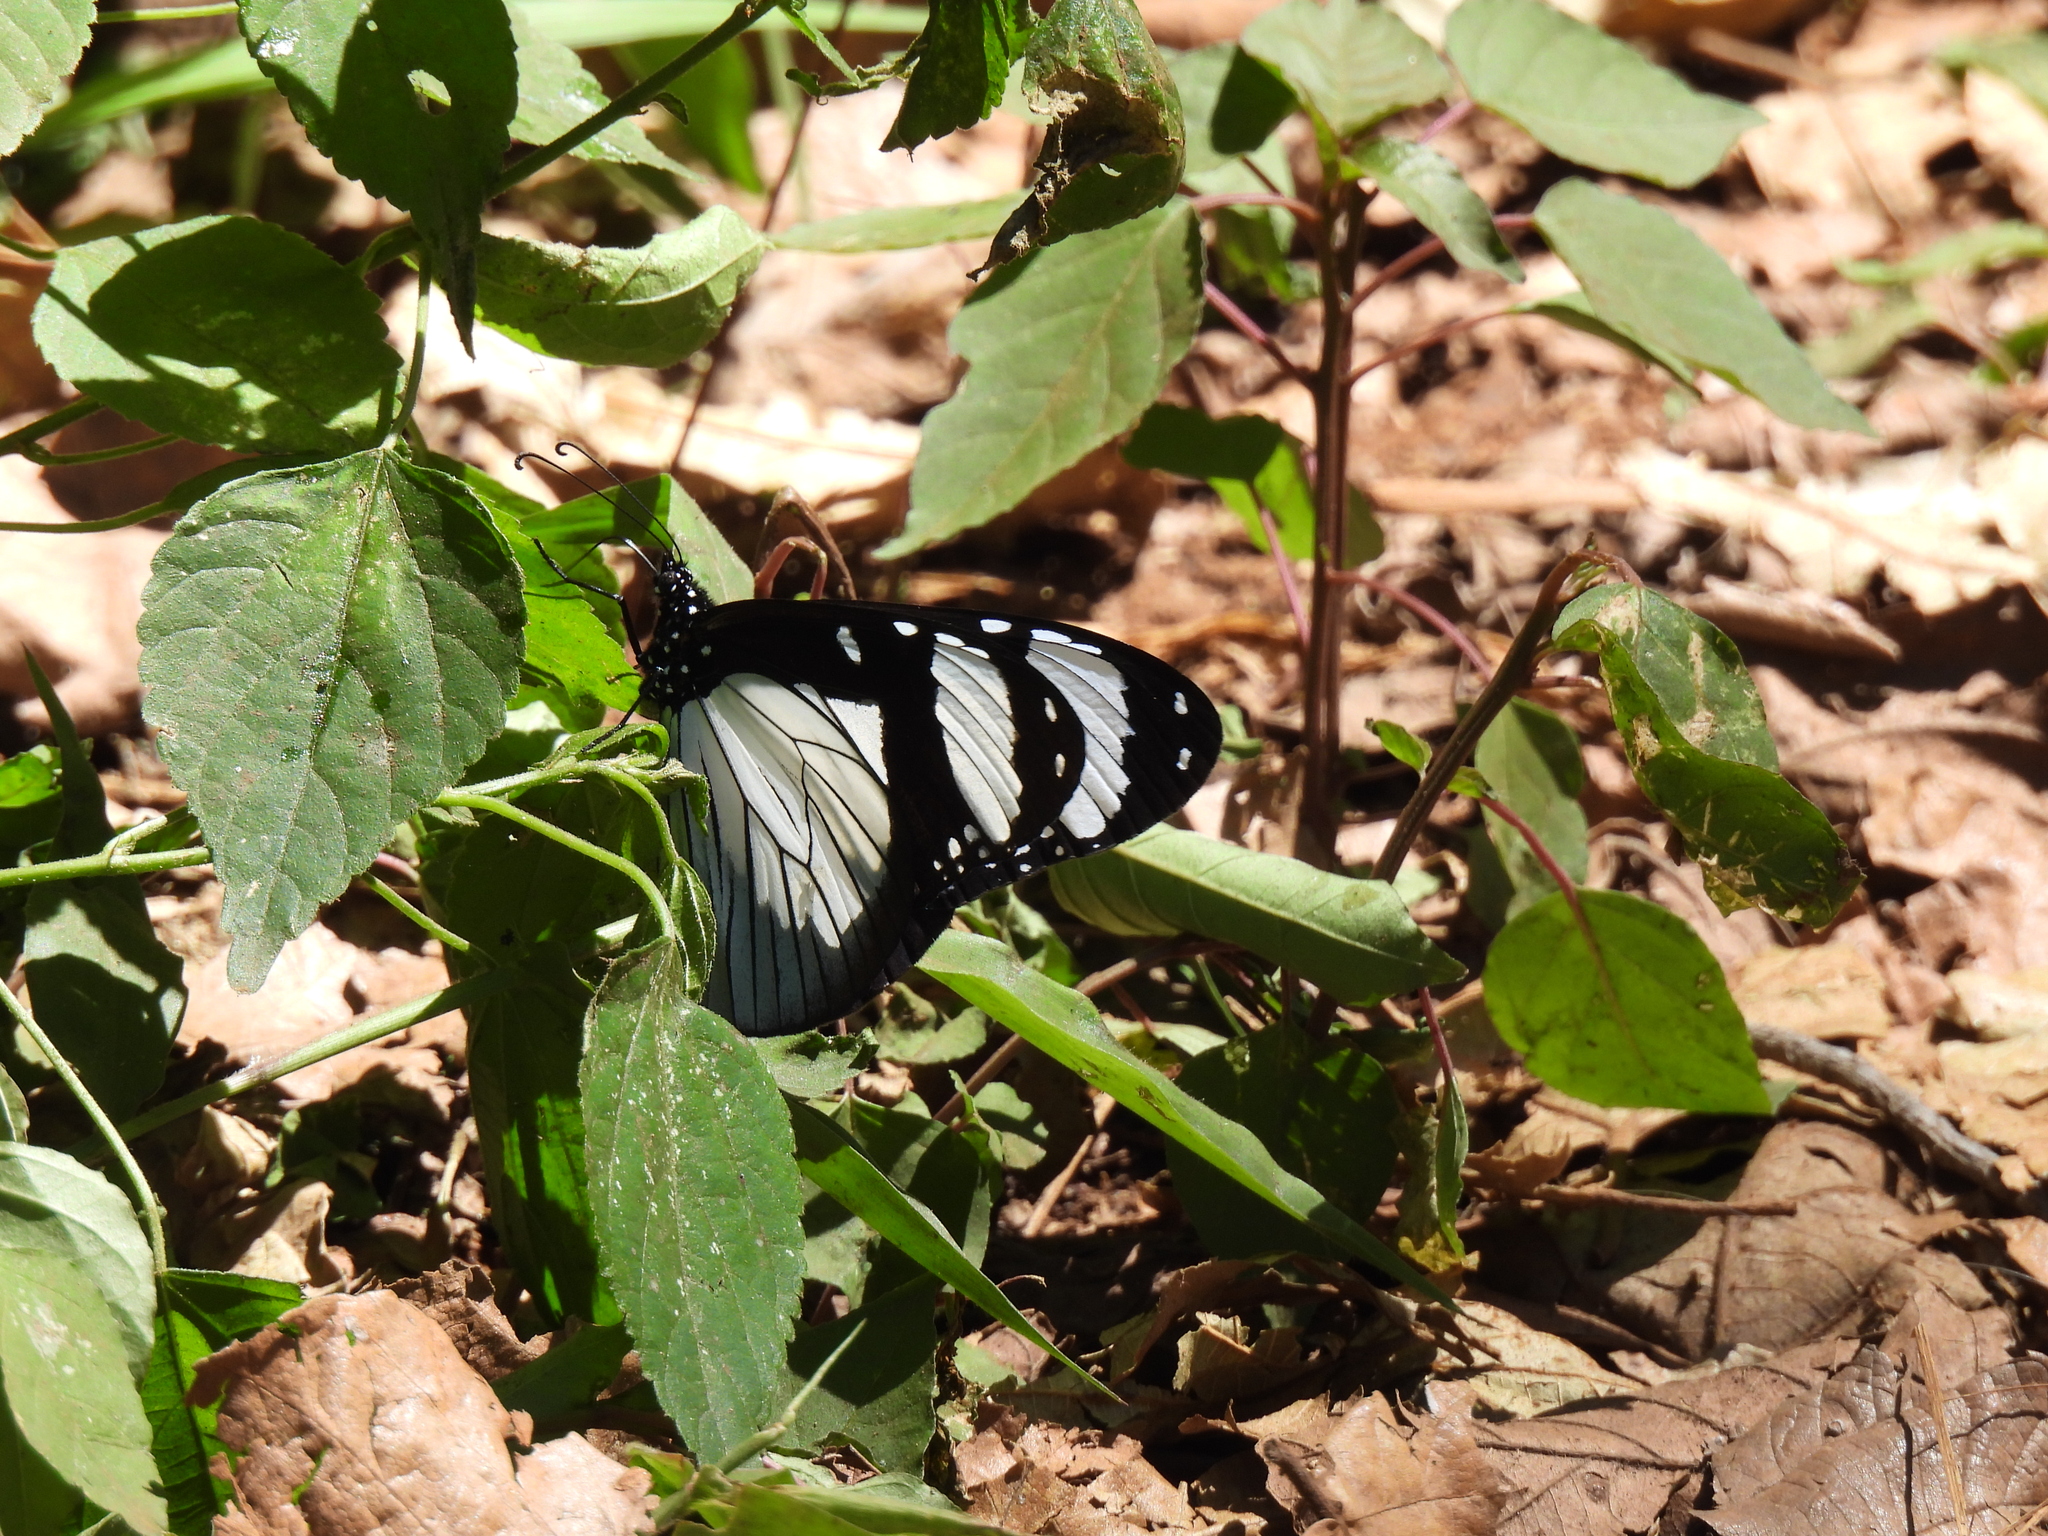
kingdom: Animalia
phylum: Arthropoda
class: Insecta
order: Lepidoptera
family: Nymphalidae
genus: Amauris
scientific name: Amauris niavius
